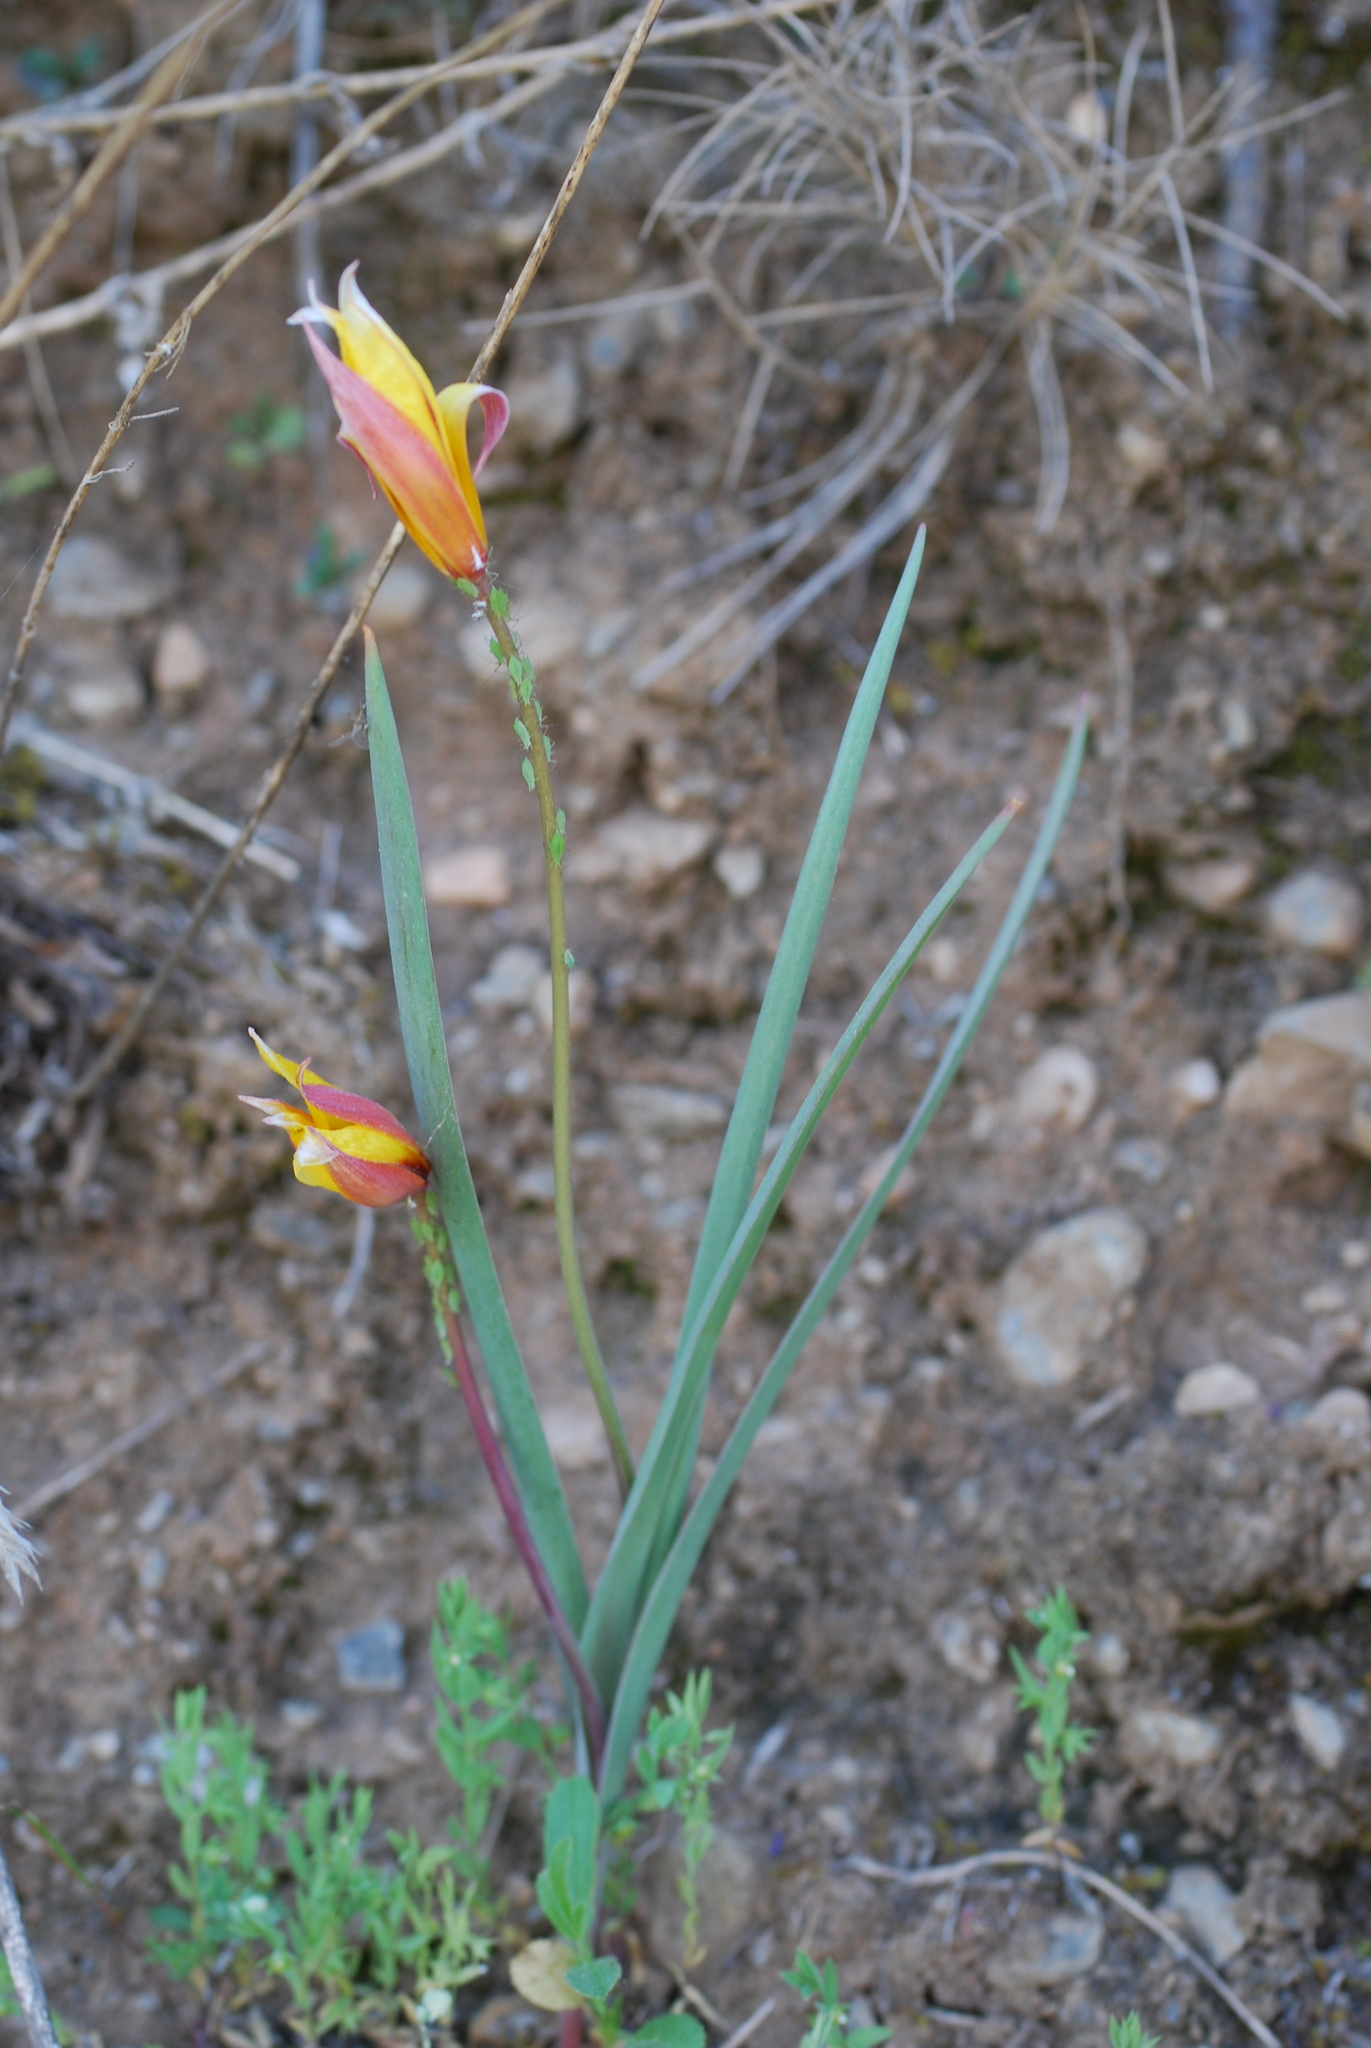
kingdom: Plantae
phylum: Tracheophyta
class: Liliopsida
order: Liliales
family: Liliaceae
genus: Tulipa
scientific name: Tulipa sylvestris
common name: Wild tulip
